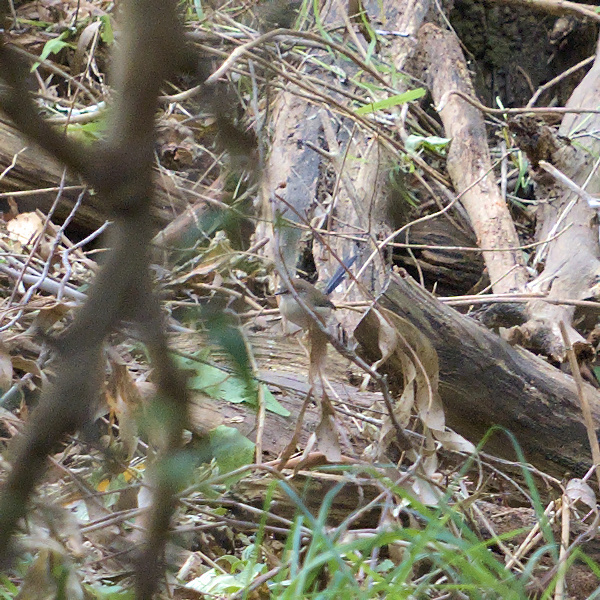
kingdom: Animalia
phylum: Chordata
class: Aves
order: Passeriformes
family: Maluridae
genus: Malurus
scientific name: Malurus cyaneus
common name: Superb fairywren
